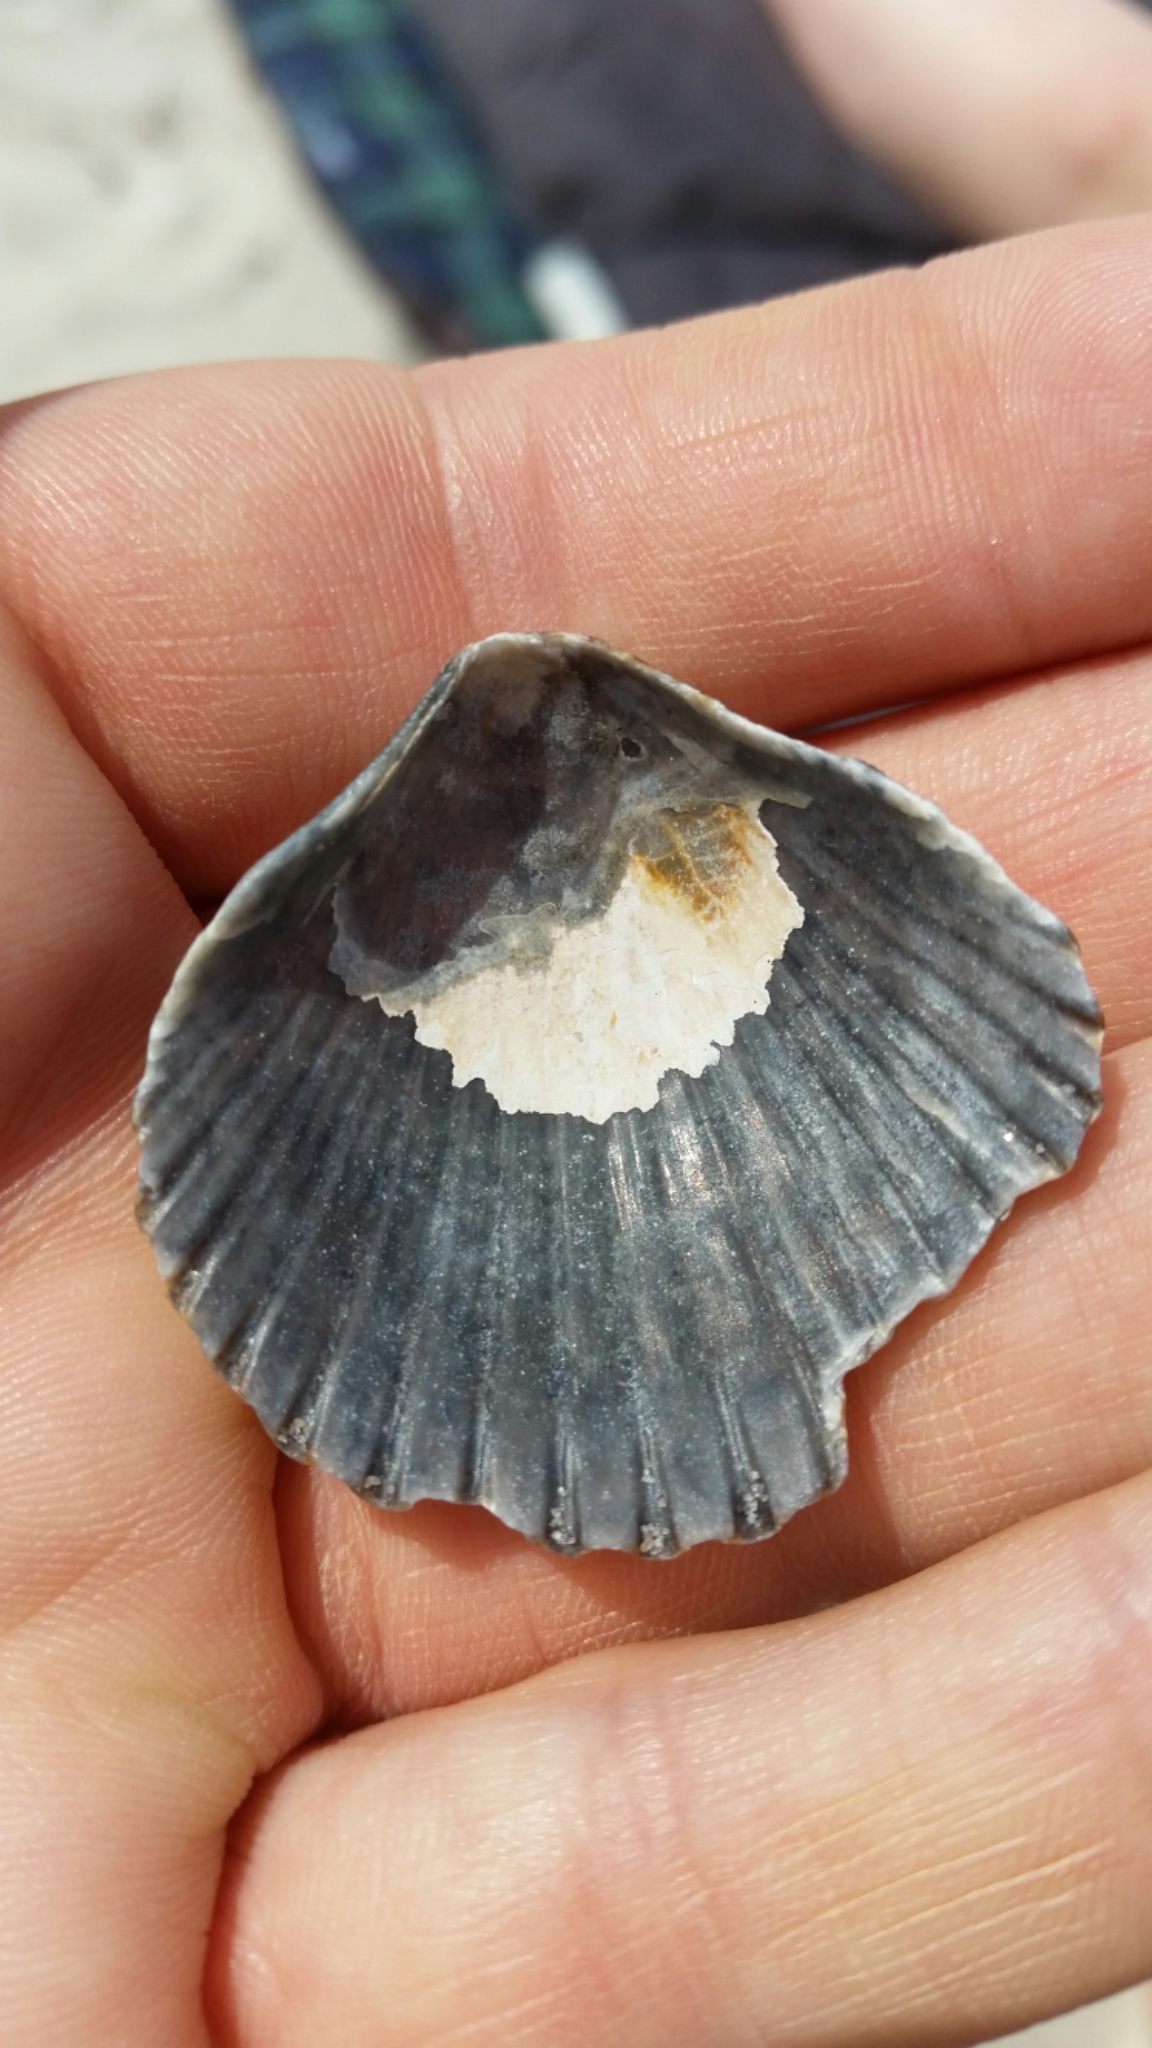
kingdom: Animalia
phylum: Mollusca
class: Bivalvia
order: Pectinida
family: Pectinidae
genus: Argopecten
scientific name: Argopecten irradians
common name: Atlantic bay scallop
